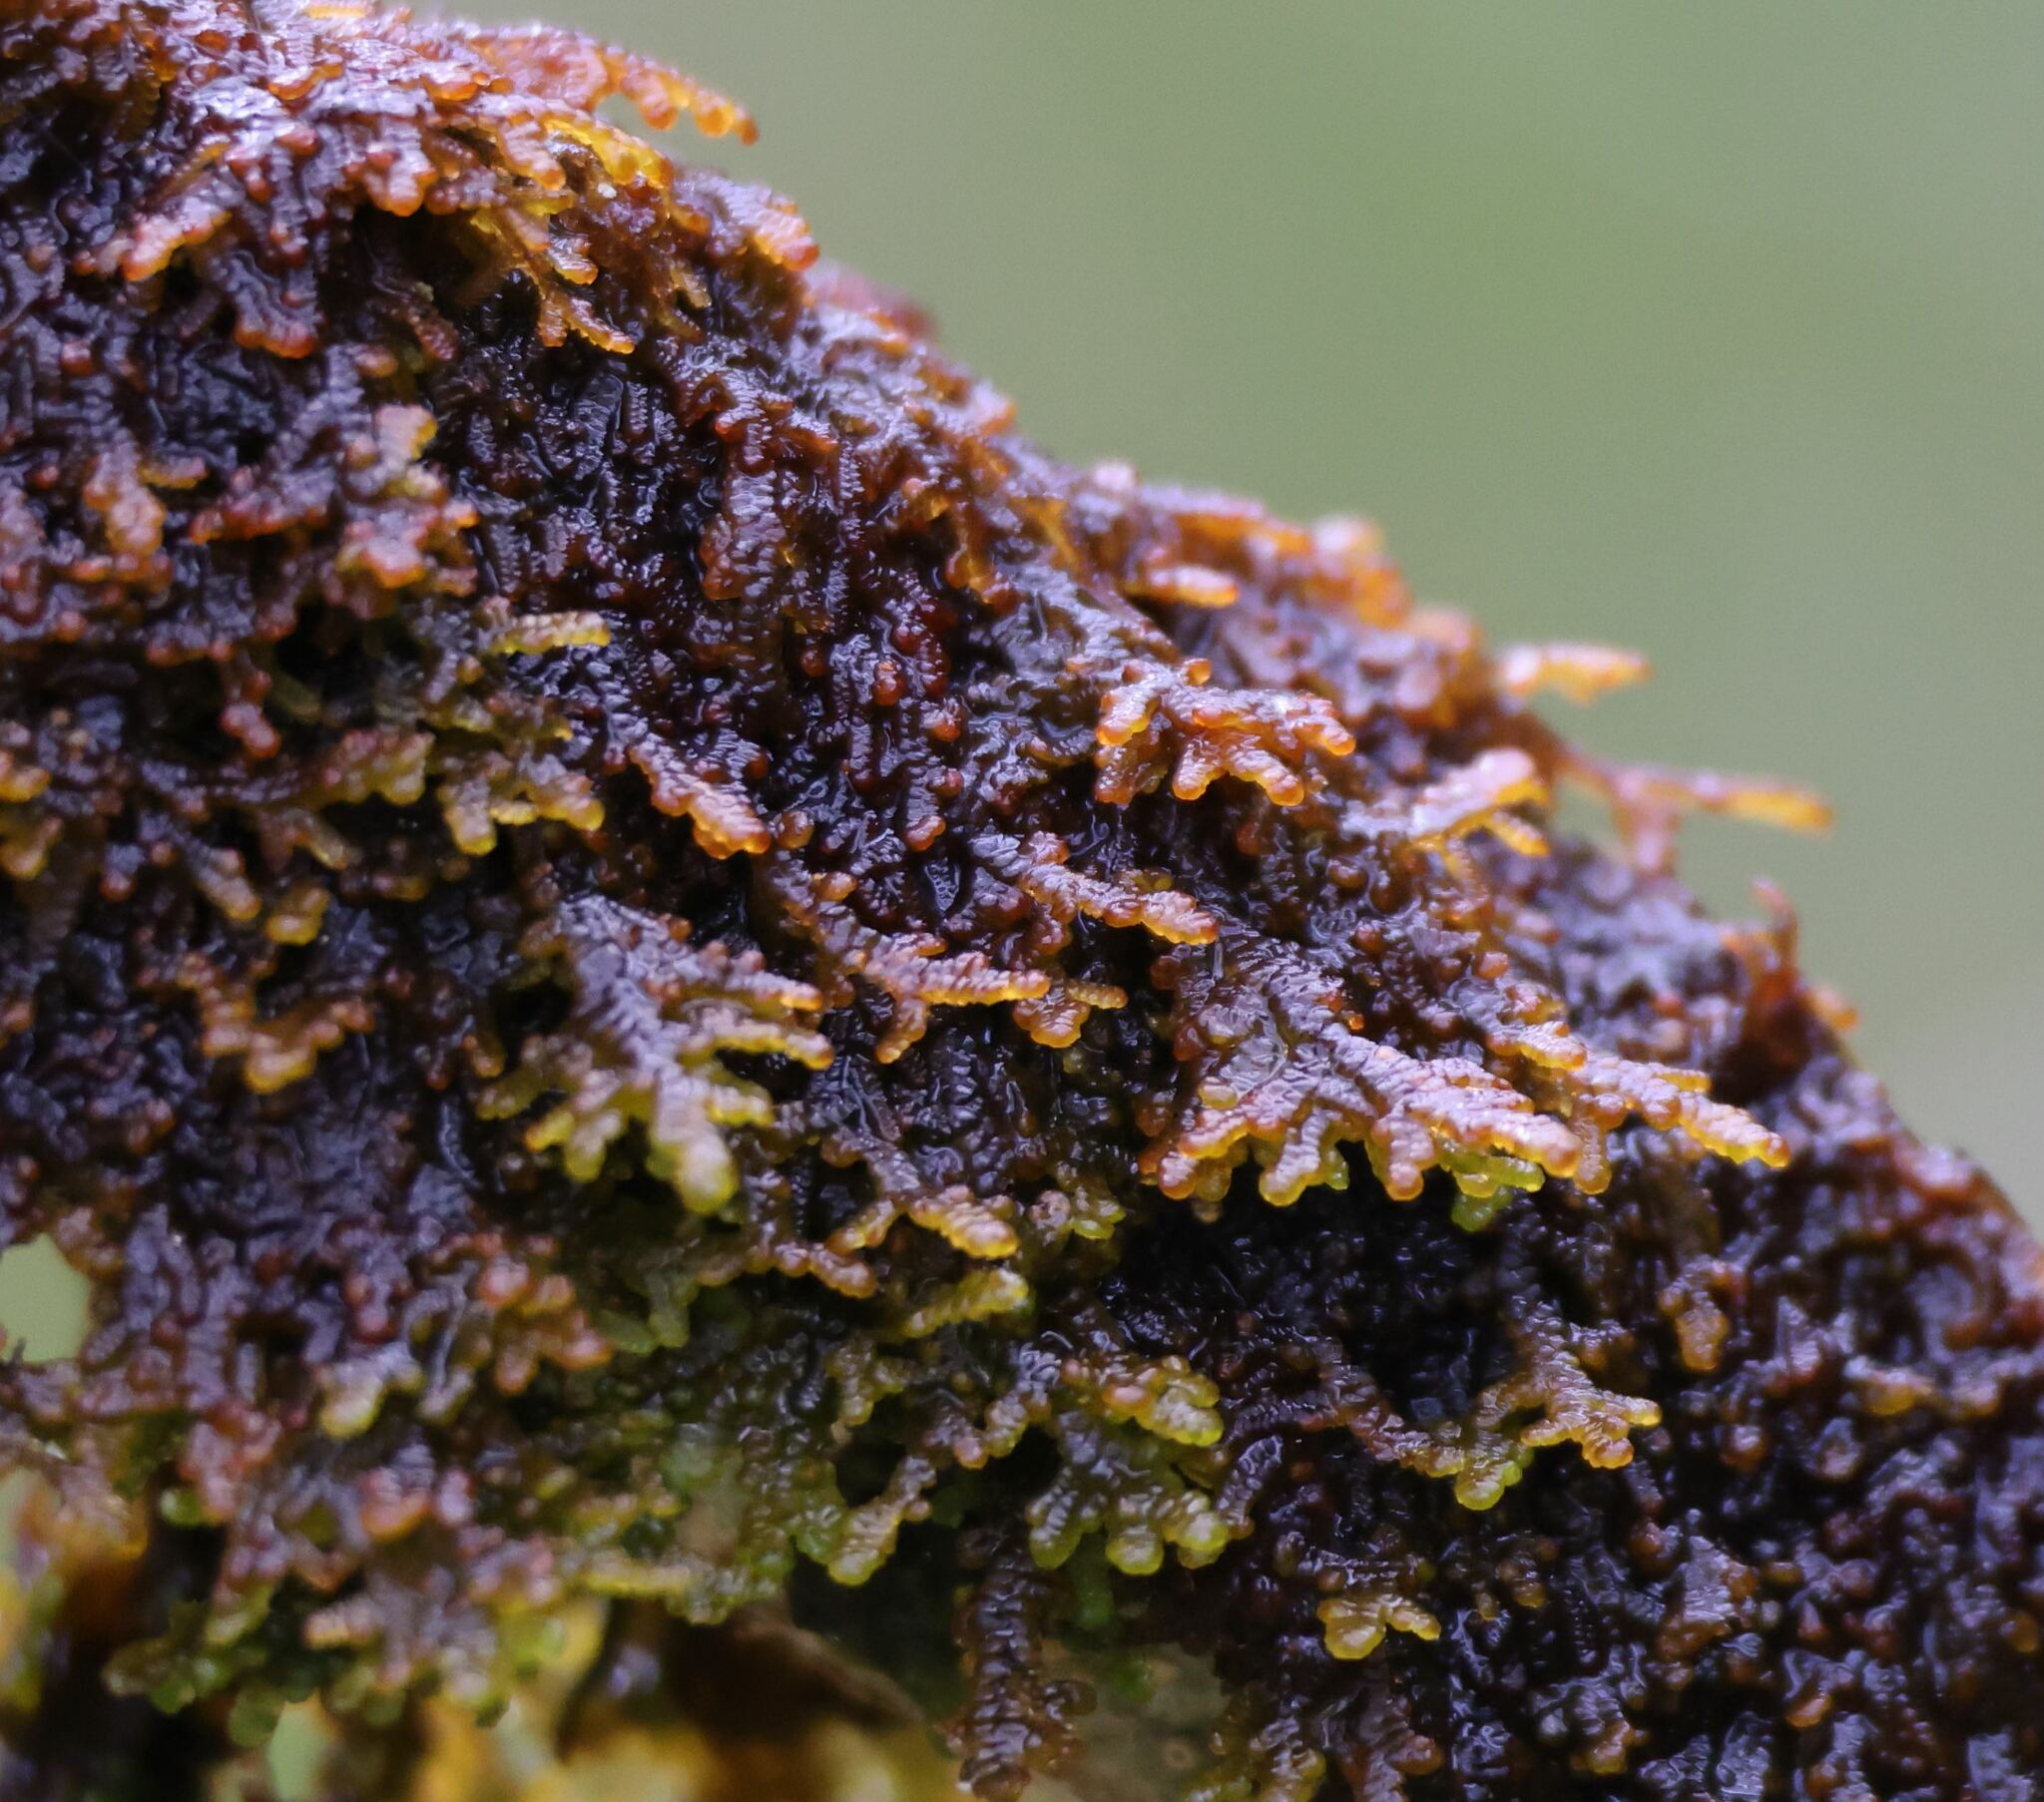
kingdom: Plantae
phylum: Marchantiophyta
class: Jungermanniopsida
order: Porellales
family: Frullaniaceae
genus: Frullania
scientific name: Frullania tamarisci
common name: Tamarisk scalewort
